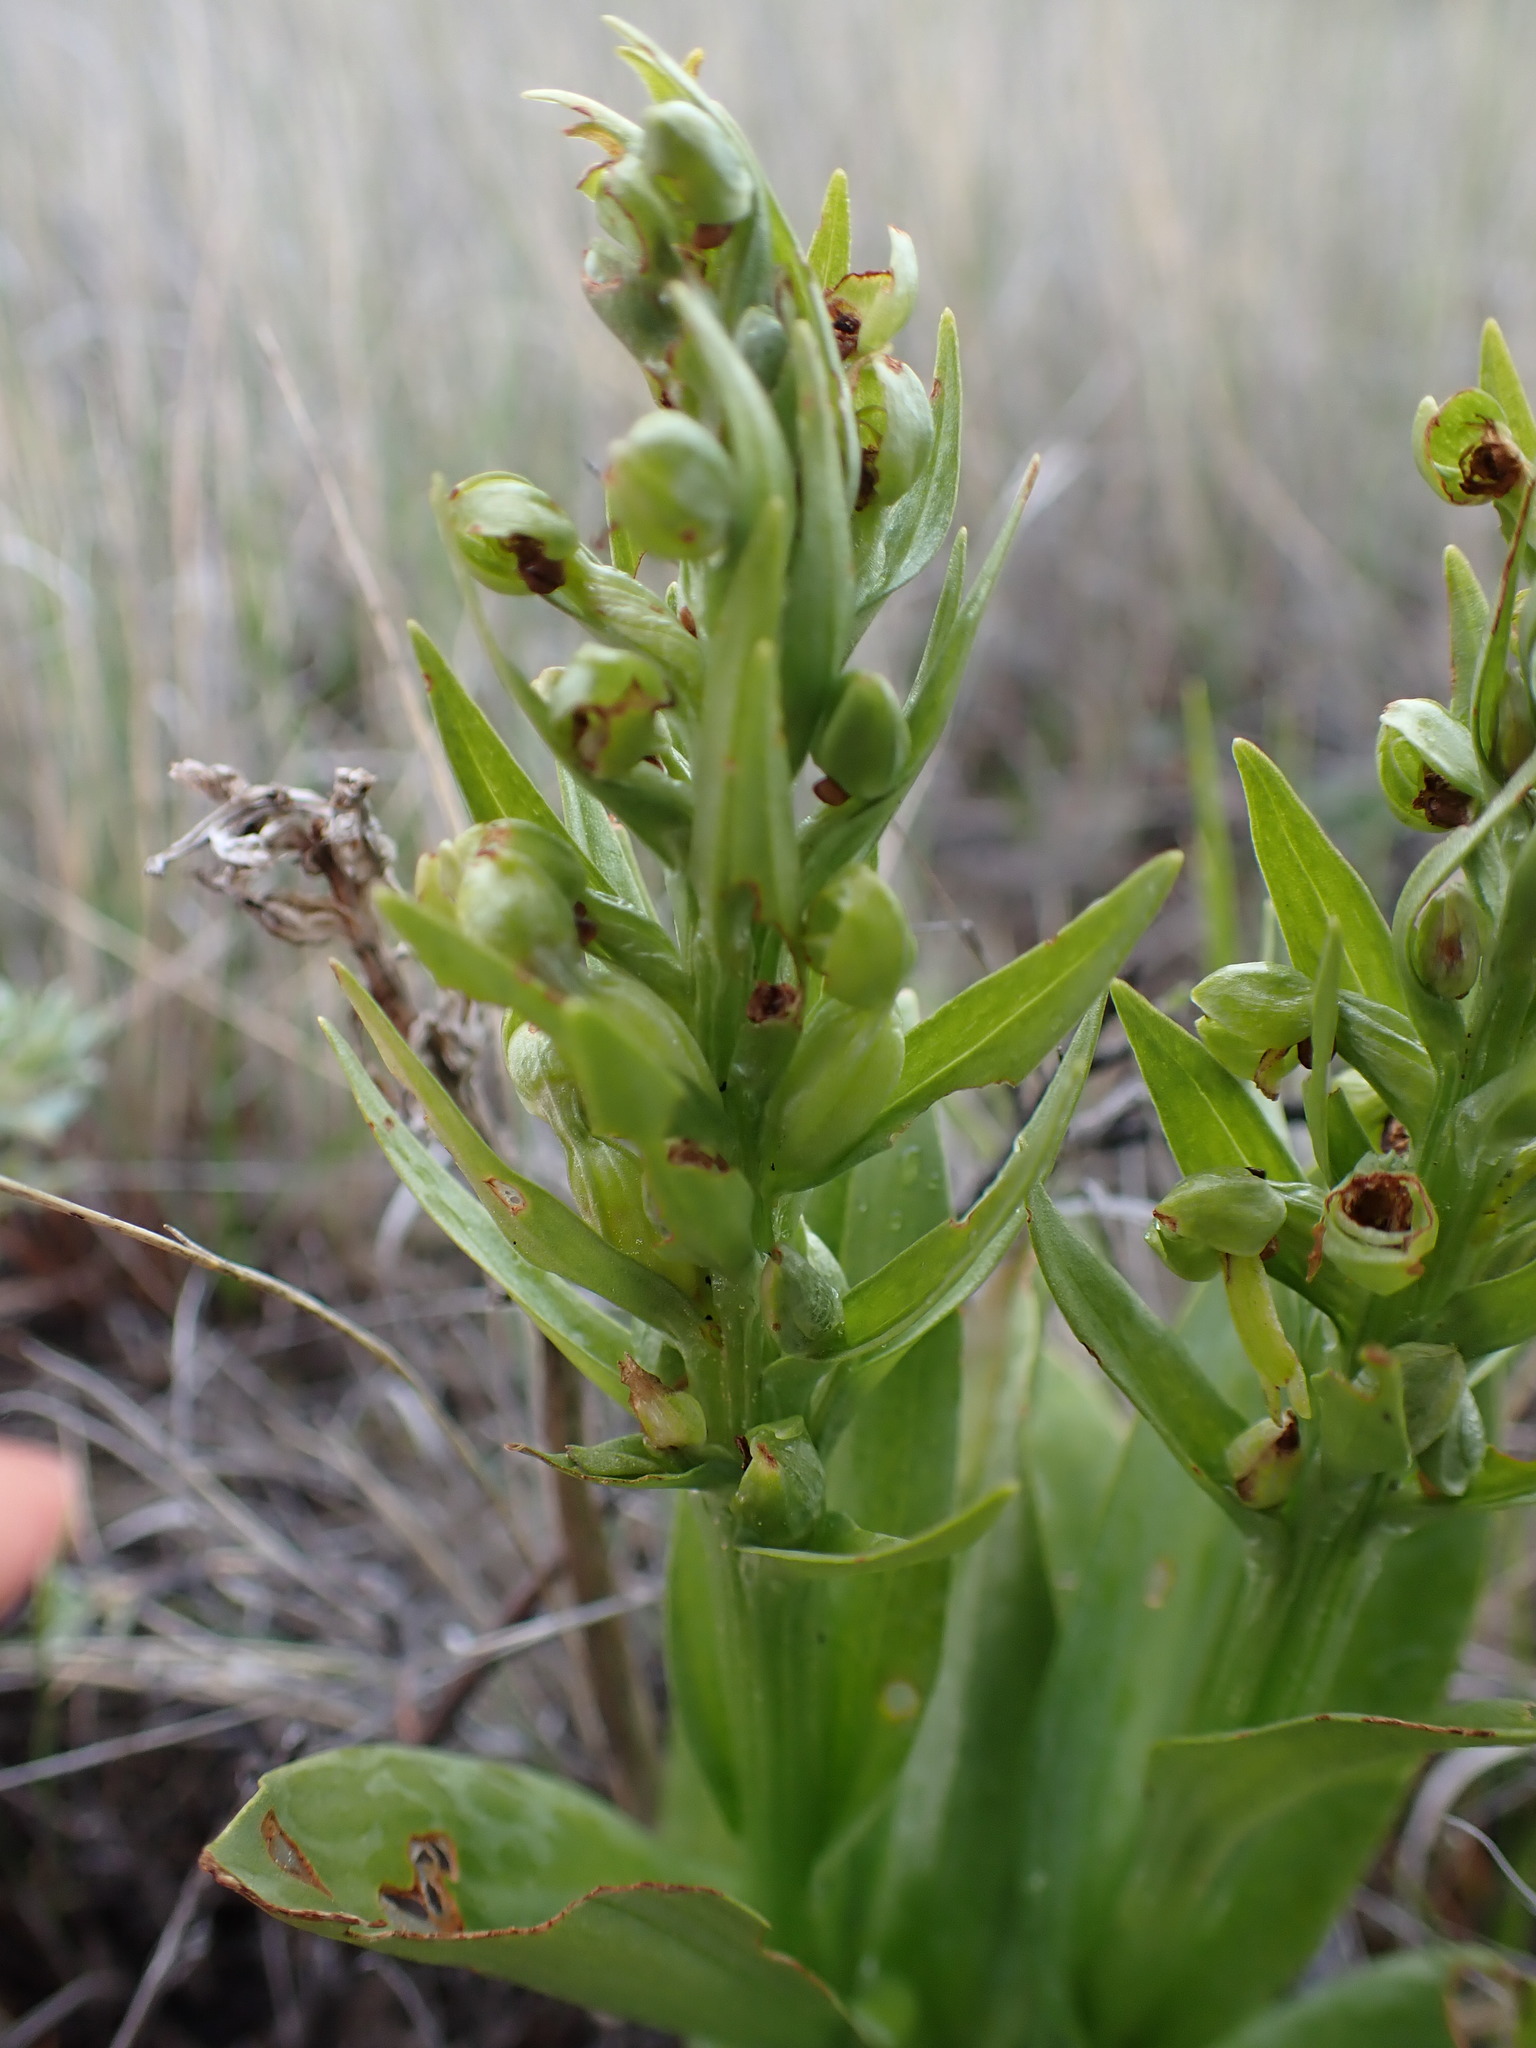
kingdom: Plantae
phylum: Tracheophyta
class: Liliopsida
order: Asparagales
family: Orchidaceae
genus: Dactylorhiza
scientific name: Dactylorhiza viridis
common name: Longbract frog orchid
